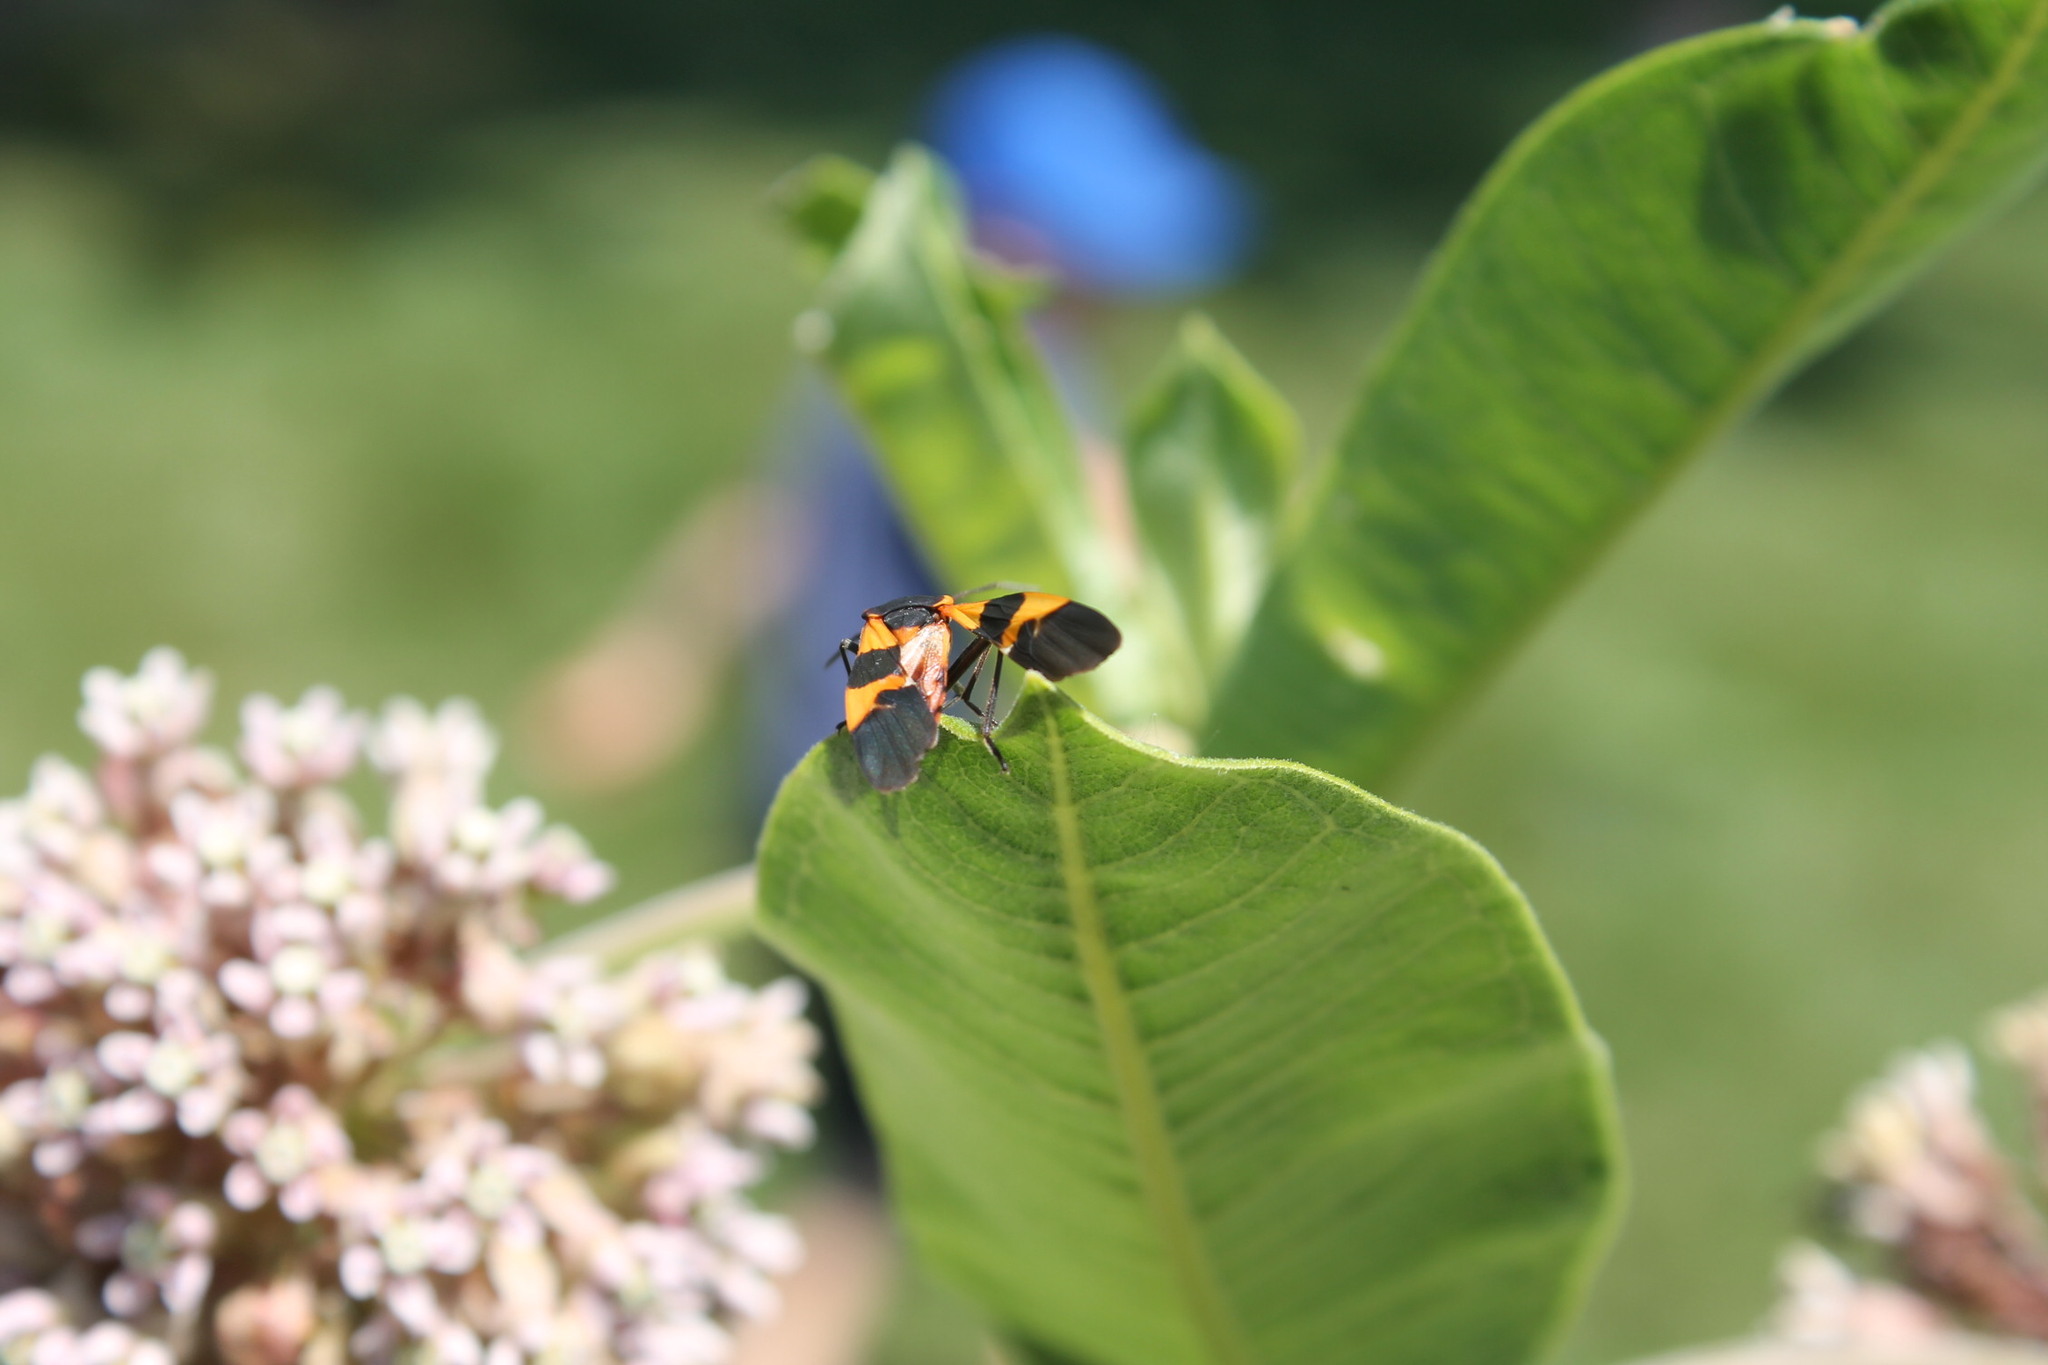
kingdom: Animalia
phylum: Arthropoda
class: Insecta
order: Hemiptera
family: Lygaeidae
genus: Oncopeltus
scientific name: Oncopeltus fasciatus
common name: Large milkweed bug
